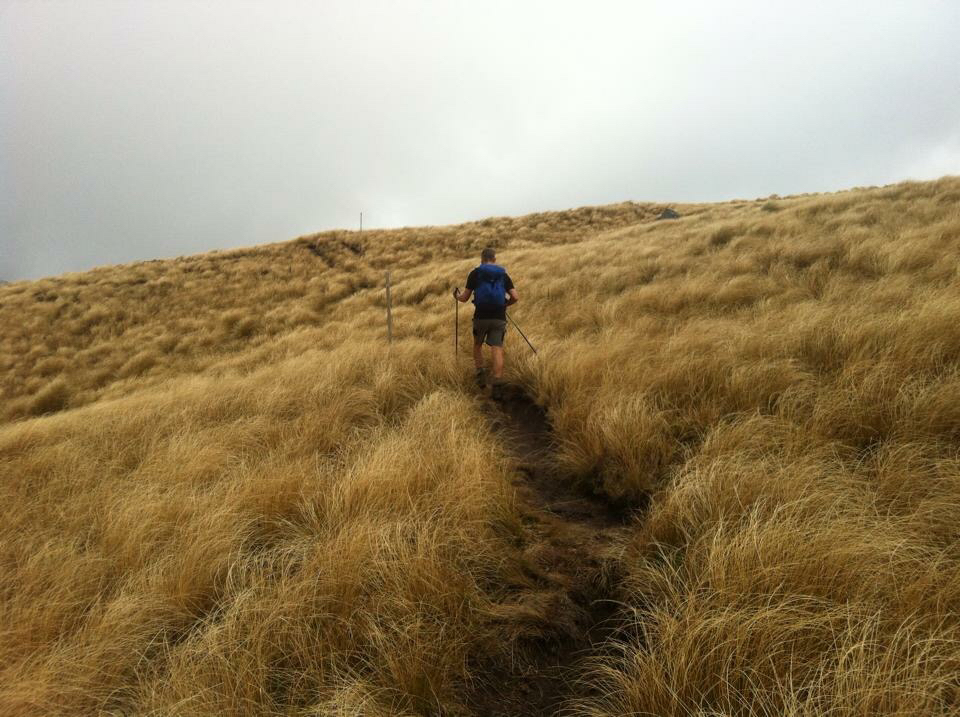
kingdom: Plantae
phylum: Tracheophyta
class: Liliopsida
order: Poales
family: Poaceae
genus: Chionochloa
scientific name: Chionochloa rubra
